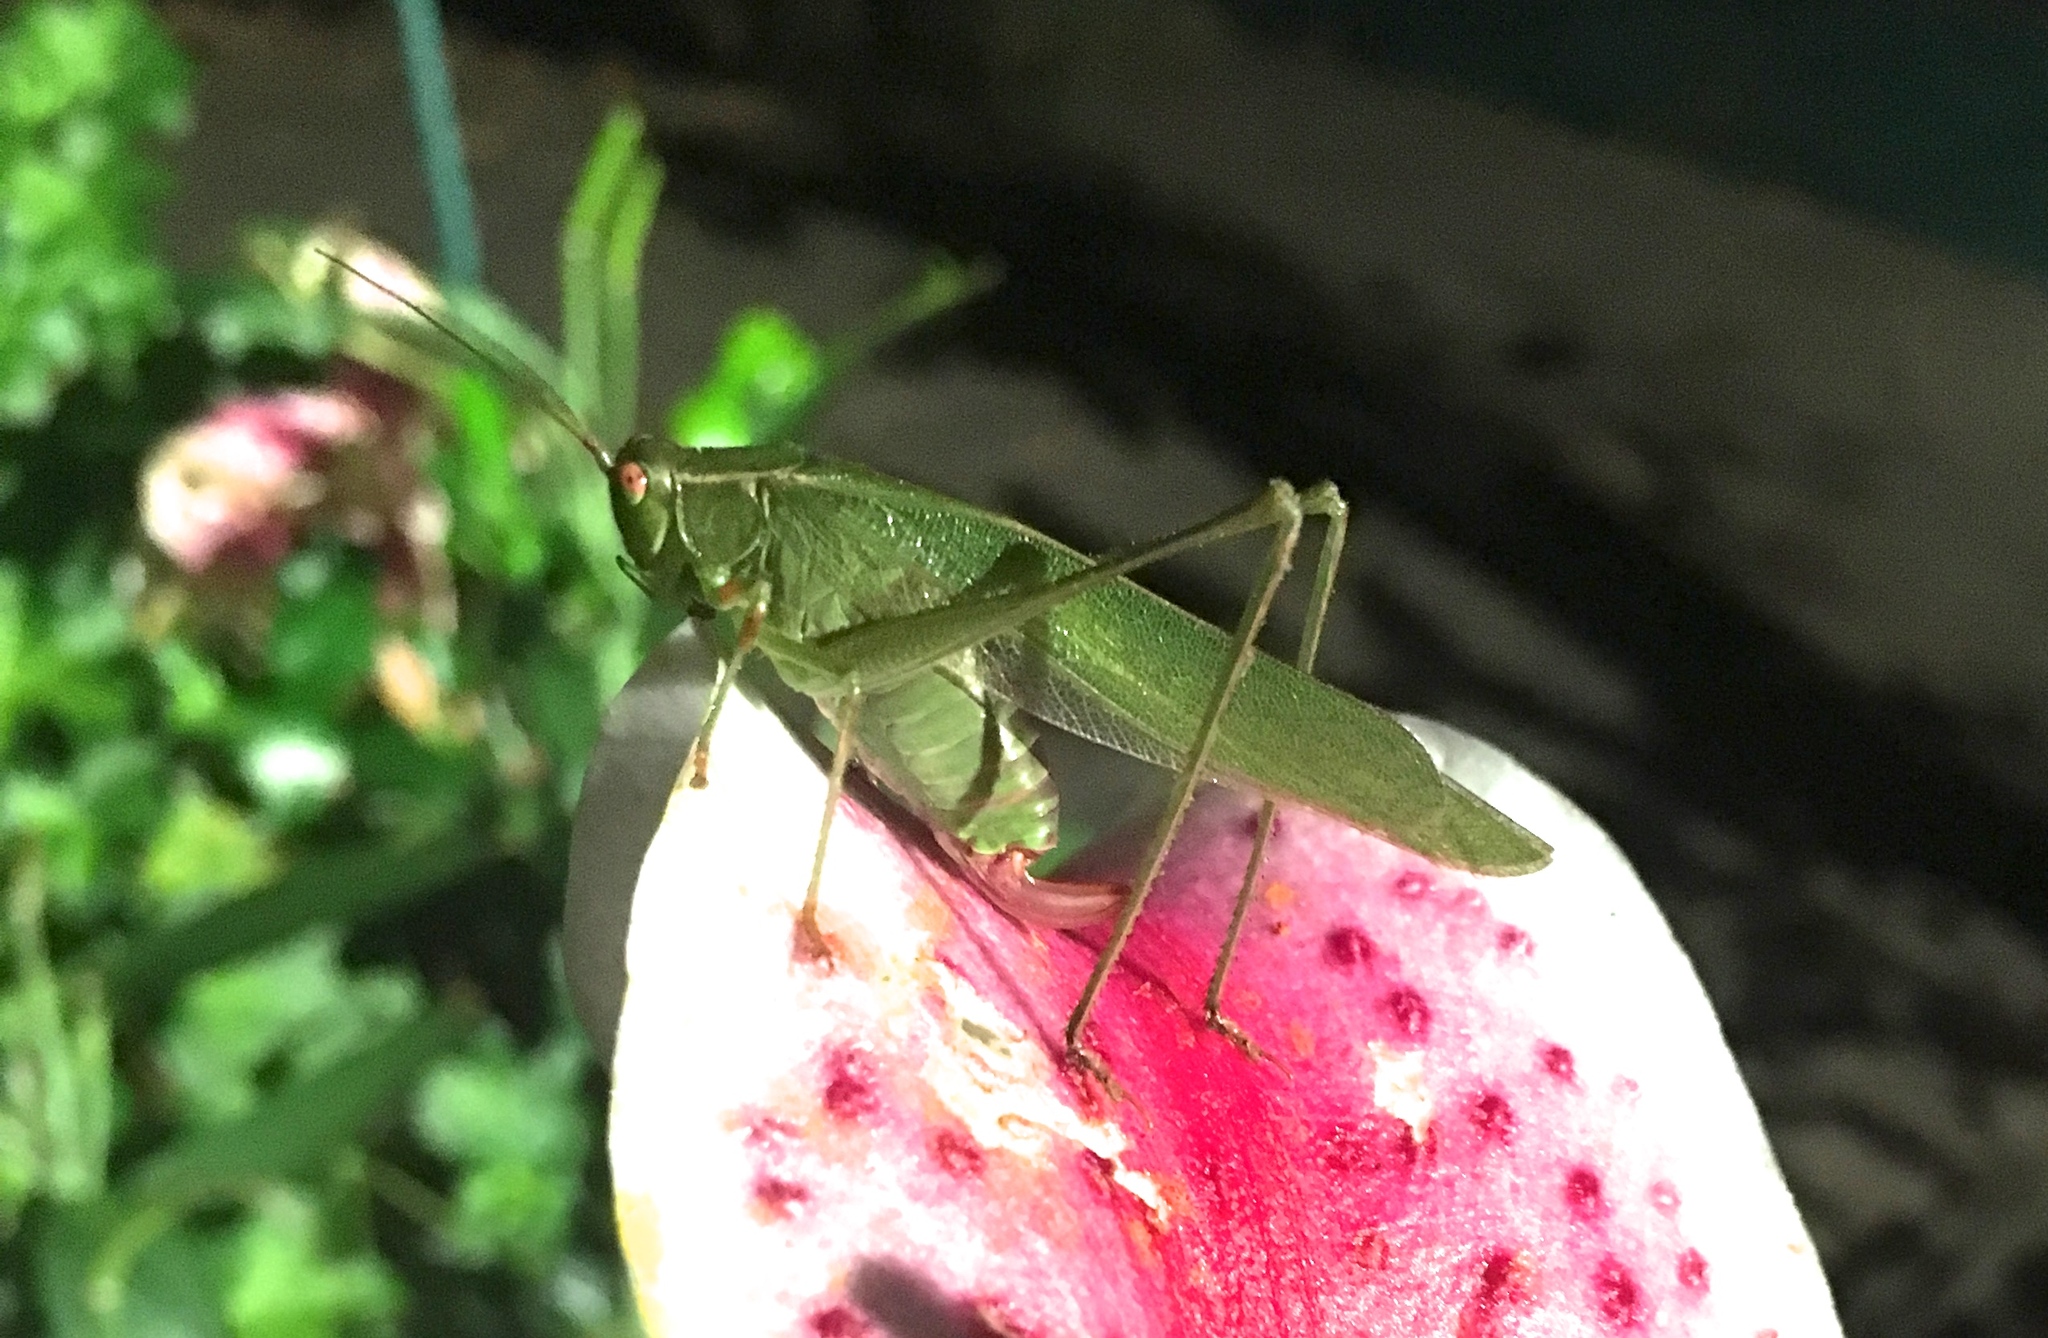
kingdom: Animalia
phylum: Arthropoda
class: Insecta
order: Orthoptera
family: Tettigoniidae
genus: Scudderia
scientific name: Scudderia furcata
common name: Fork-tailed bush katydid
